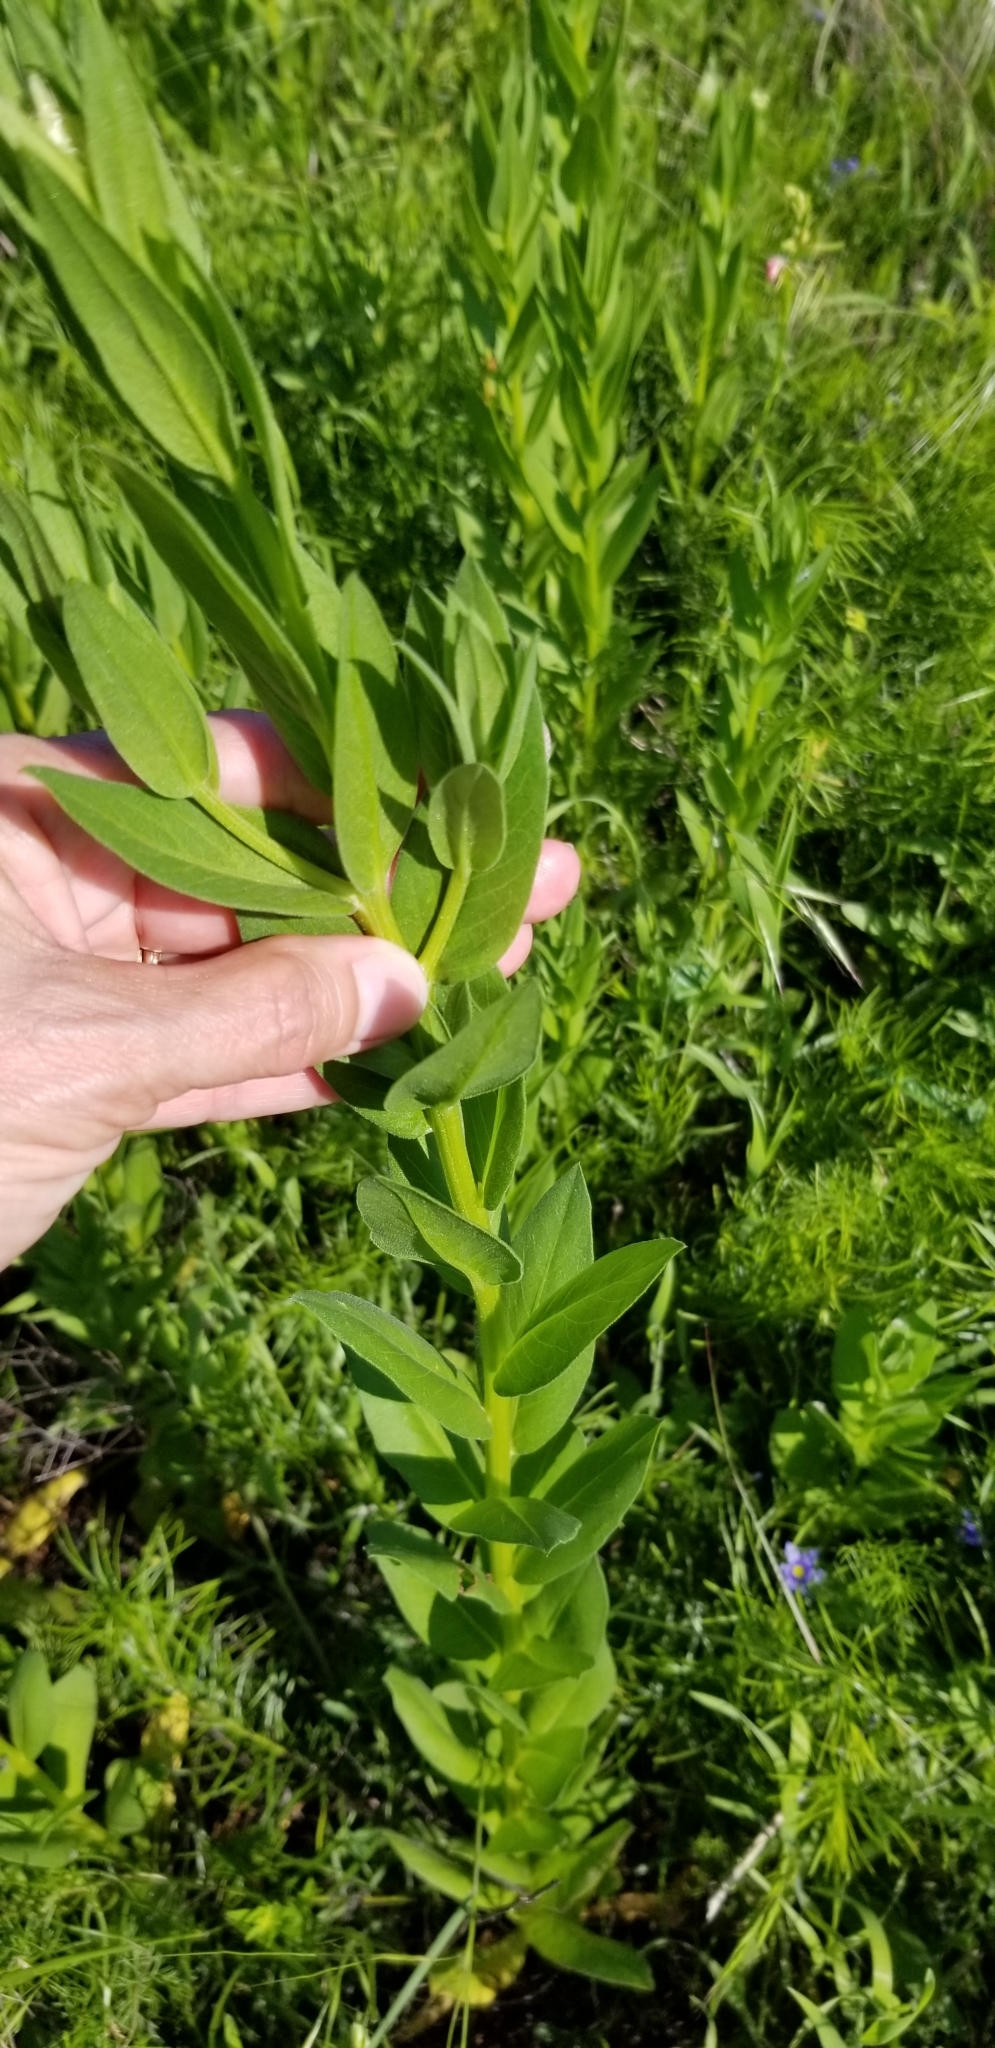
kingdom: Plantae
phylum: Tracheophyta
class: Magnoliopsida
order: Asterales
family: Asteraceae
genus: Plectocephalus
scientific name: Plectocephalus americanus
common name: American basket-flower
